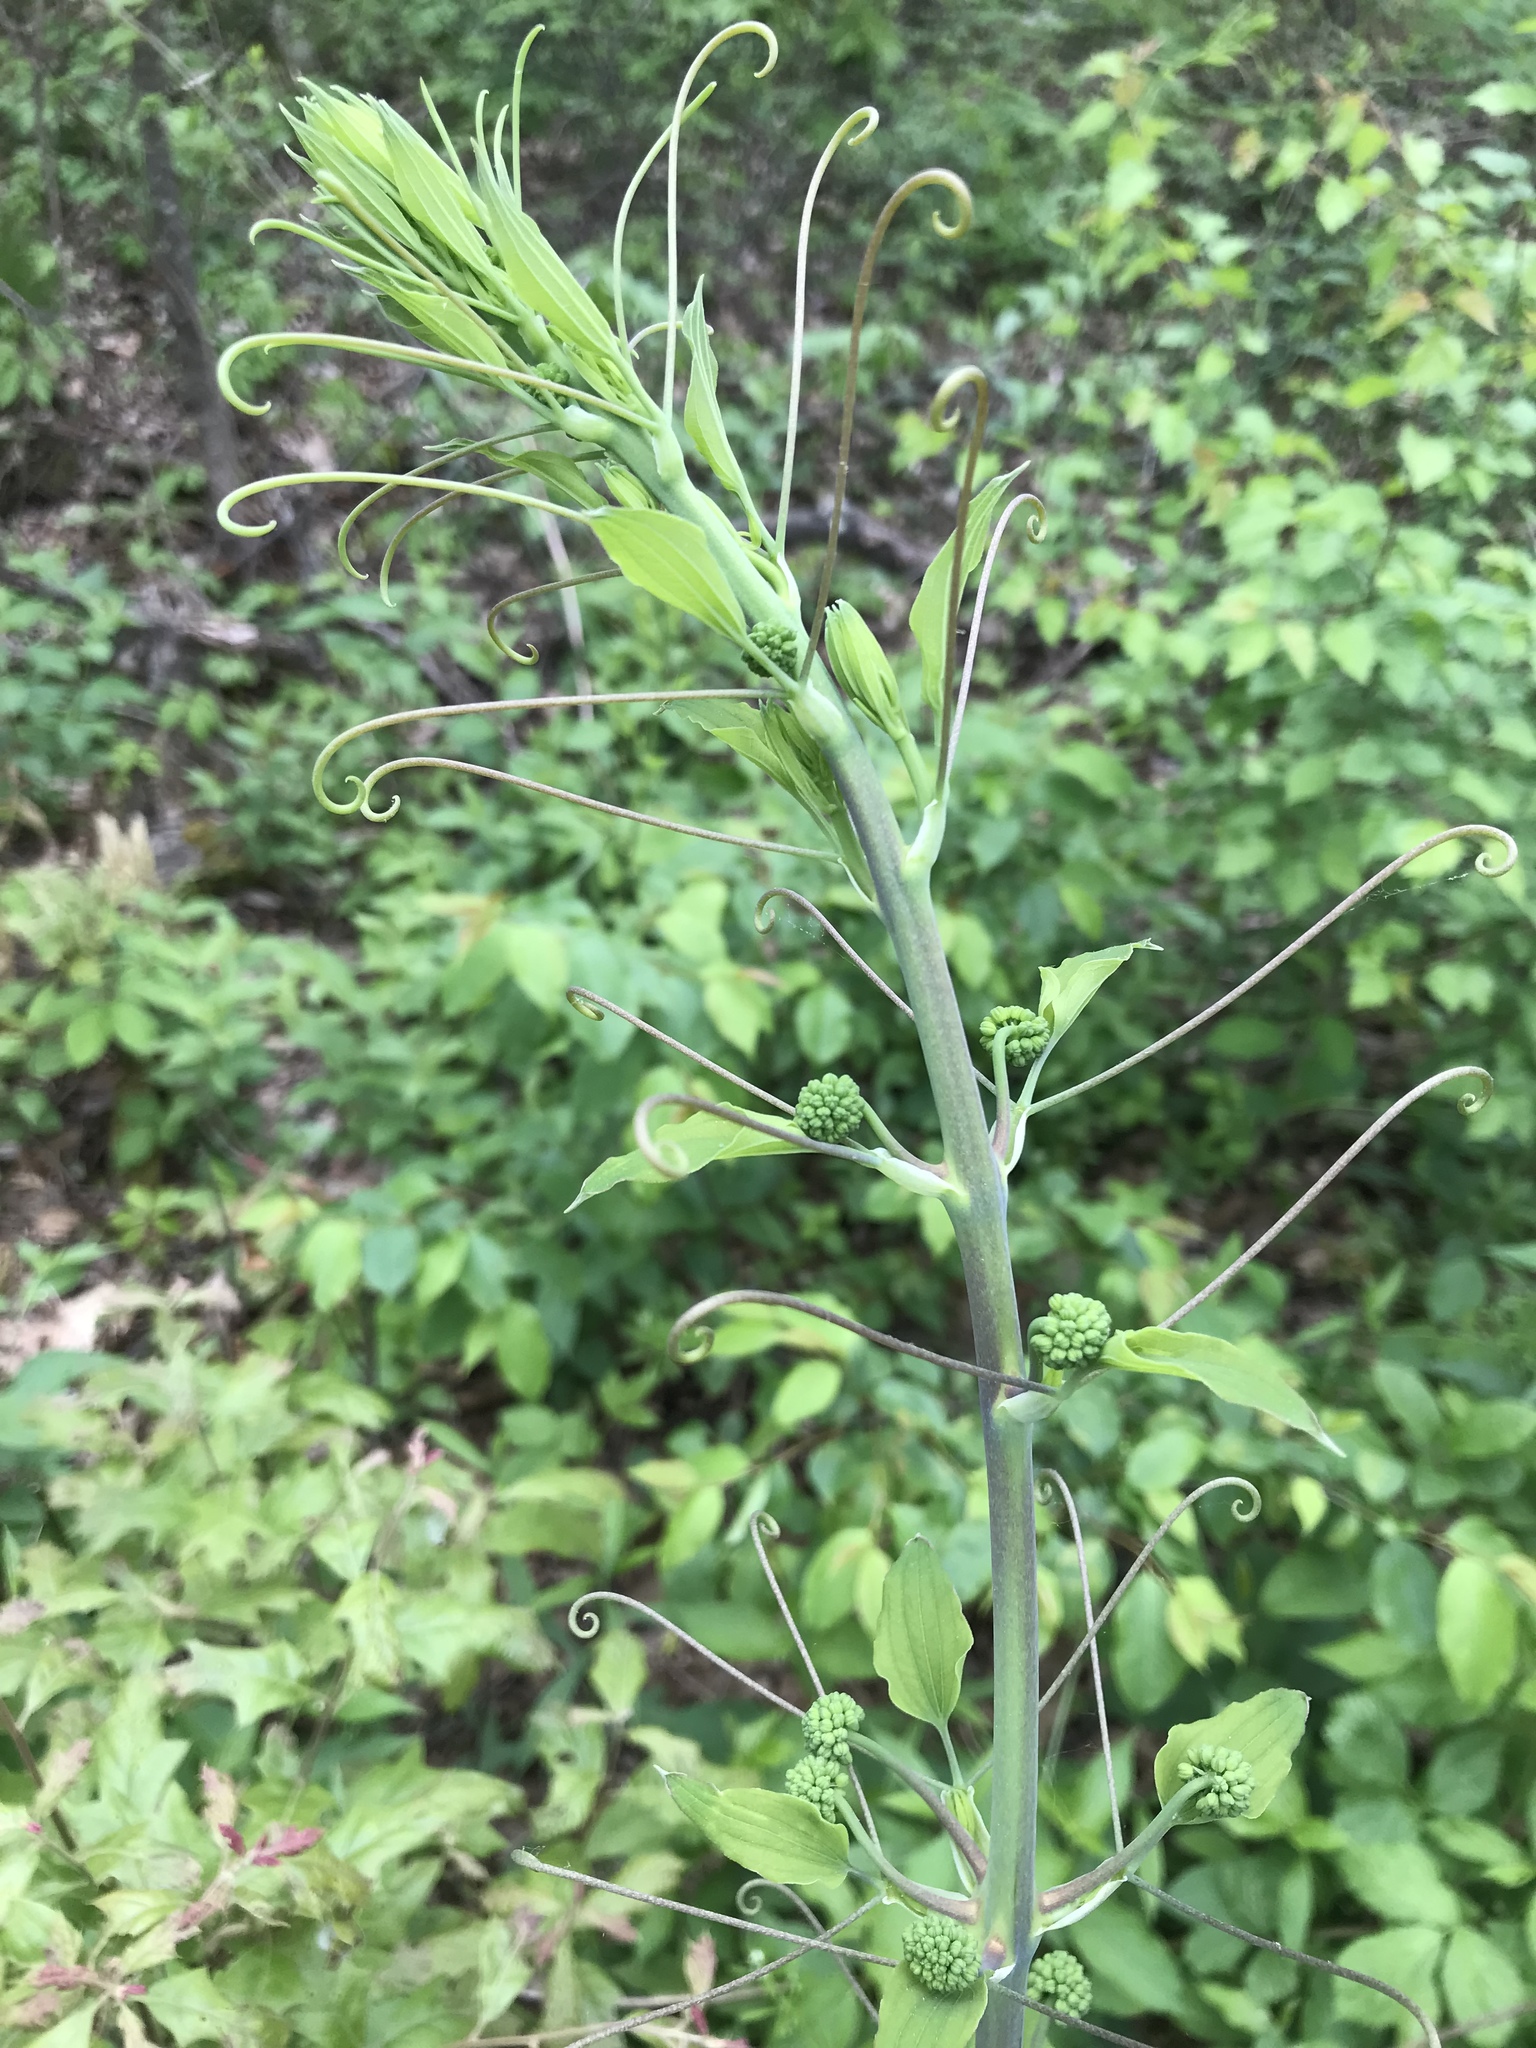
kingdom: Plantae
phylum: Tracheophyta
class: Liliopsida
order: Liliales
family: Smilacaceae
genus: Smilax
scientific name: Smilax herbacea
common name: Jacob's-ladder
